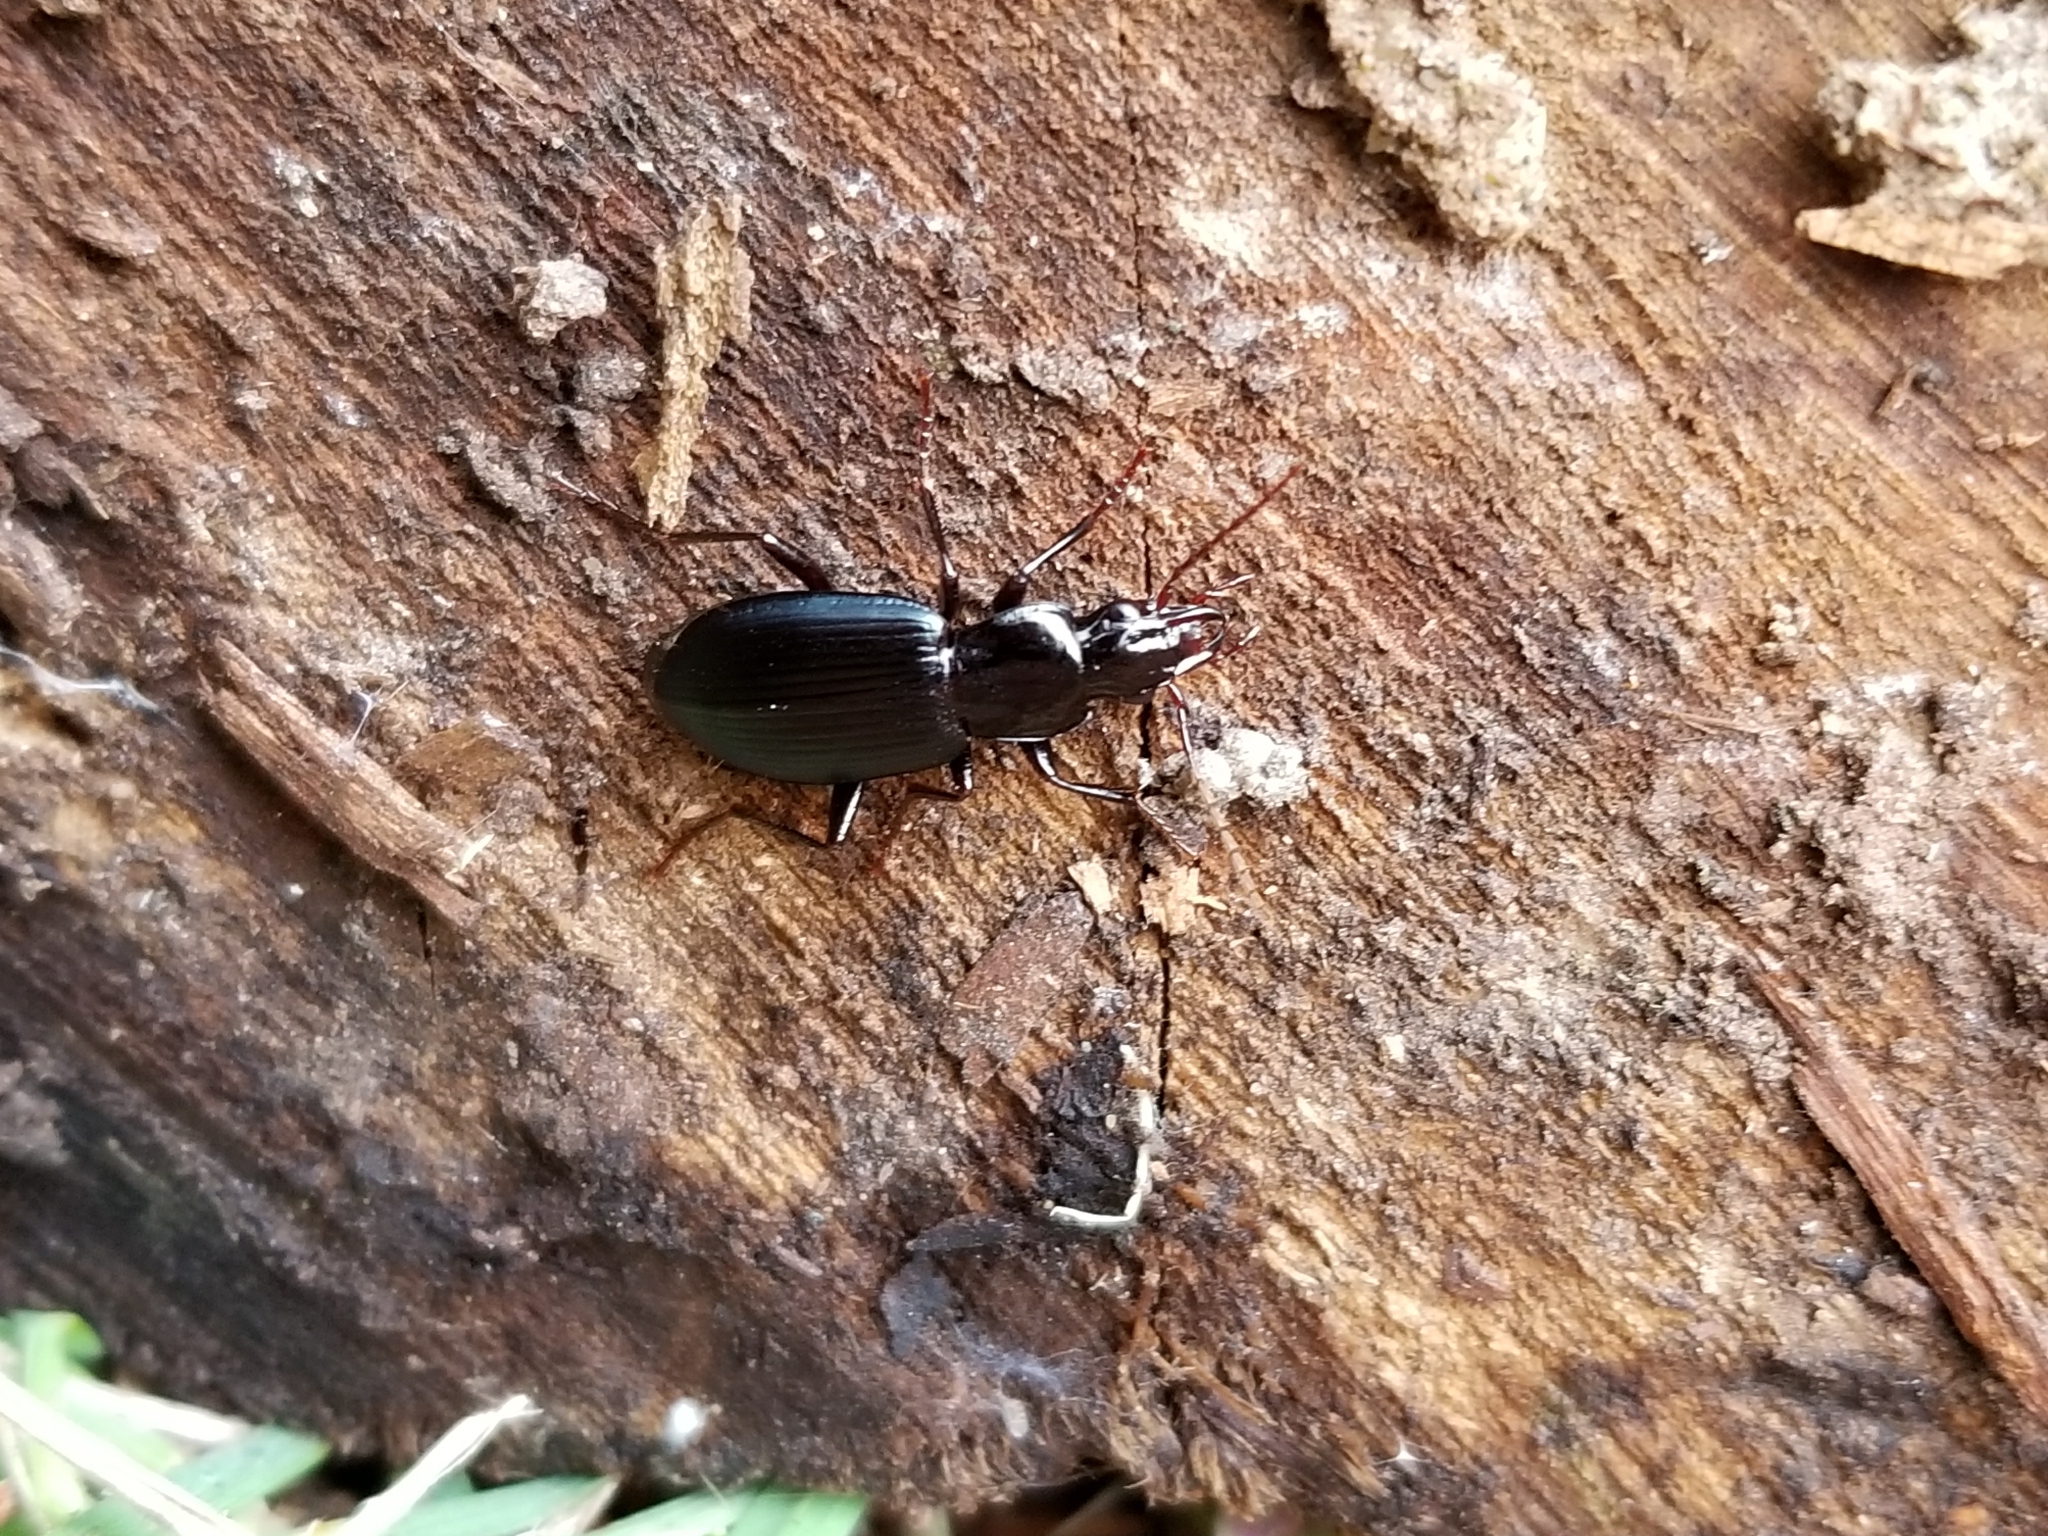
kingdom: Animalia
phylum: Arthropoda
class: Insecta
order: Coleoptera
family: Carabidae
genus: Laemostenus
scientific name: Laemostenus complanatus
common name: Cosmopolitan ground beetle
